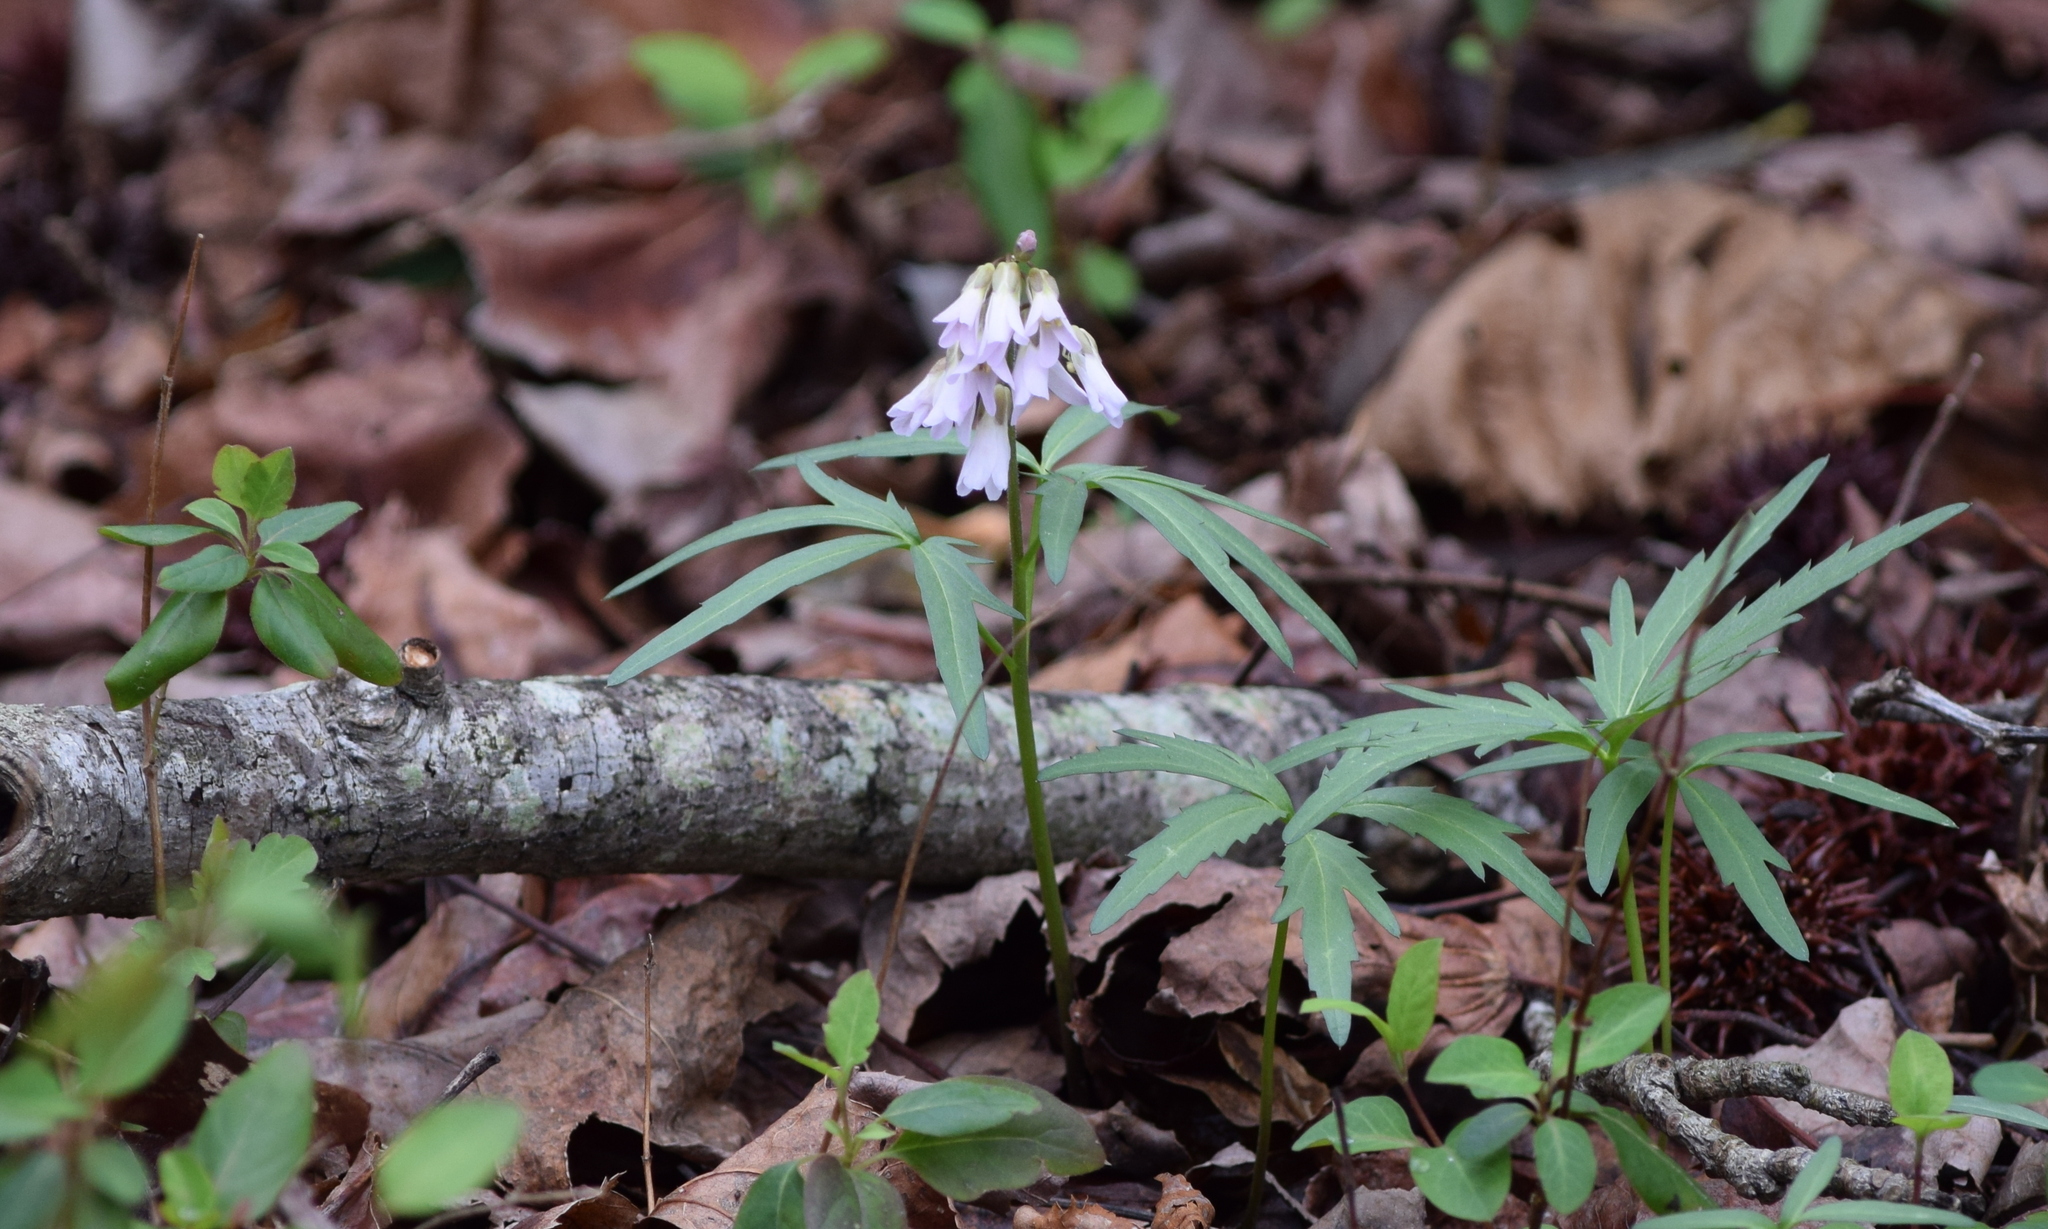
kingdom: Plantae
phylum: Tracheophyta
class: Magnoliopsida
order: Brassicales
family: Brassicaceae
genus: Cardamine
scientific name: Cardamine concatenata
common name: Cut-leaf toothcup
